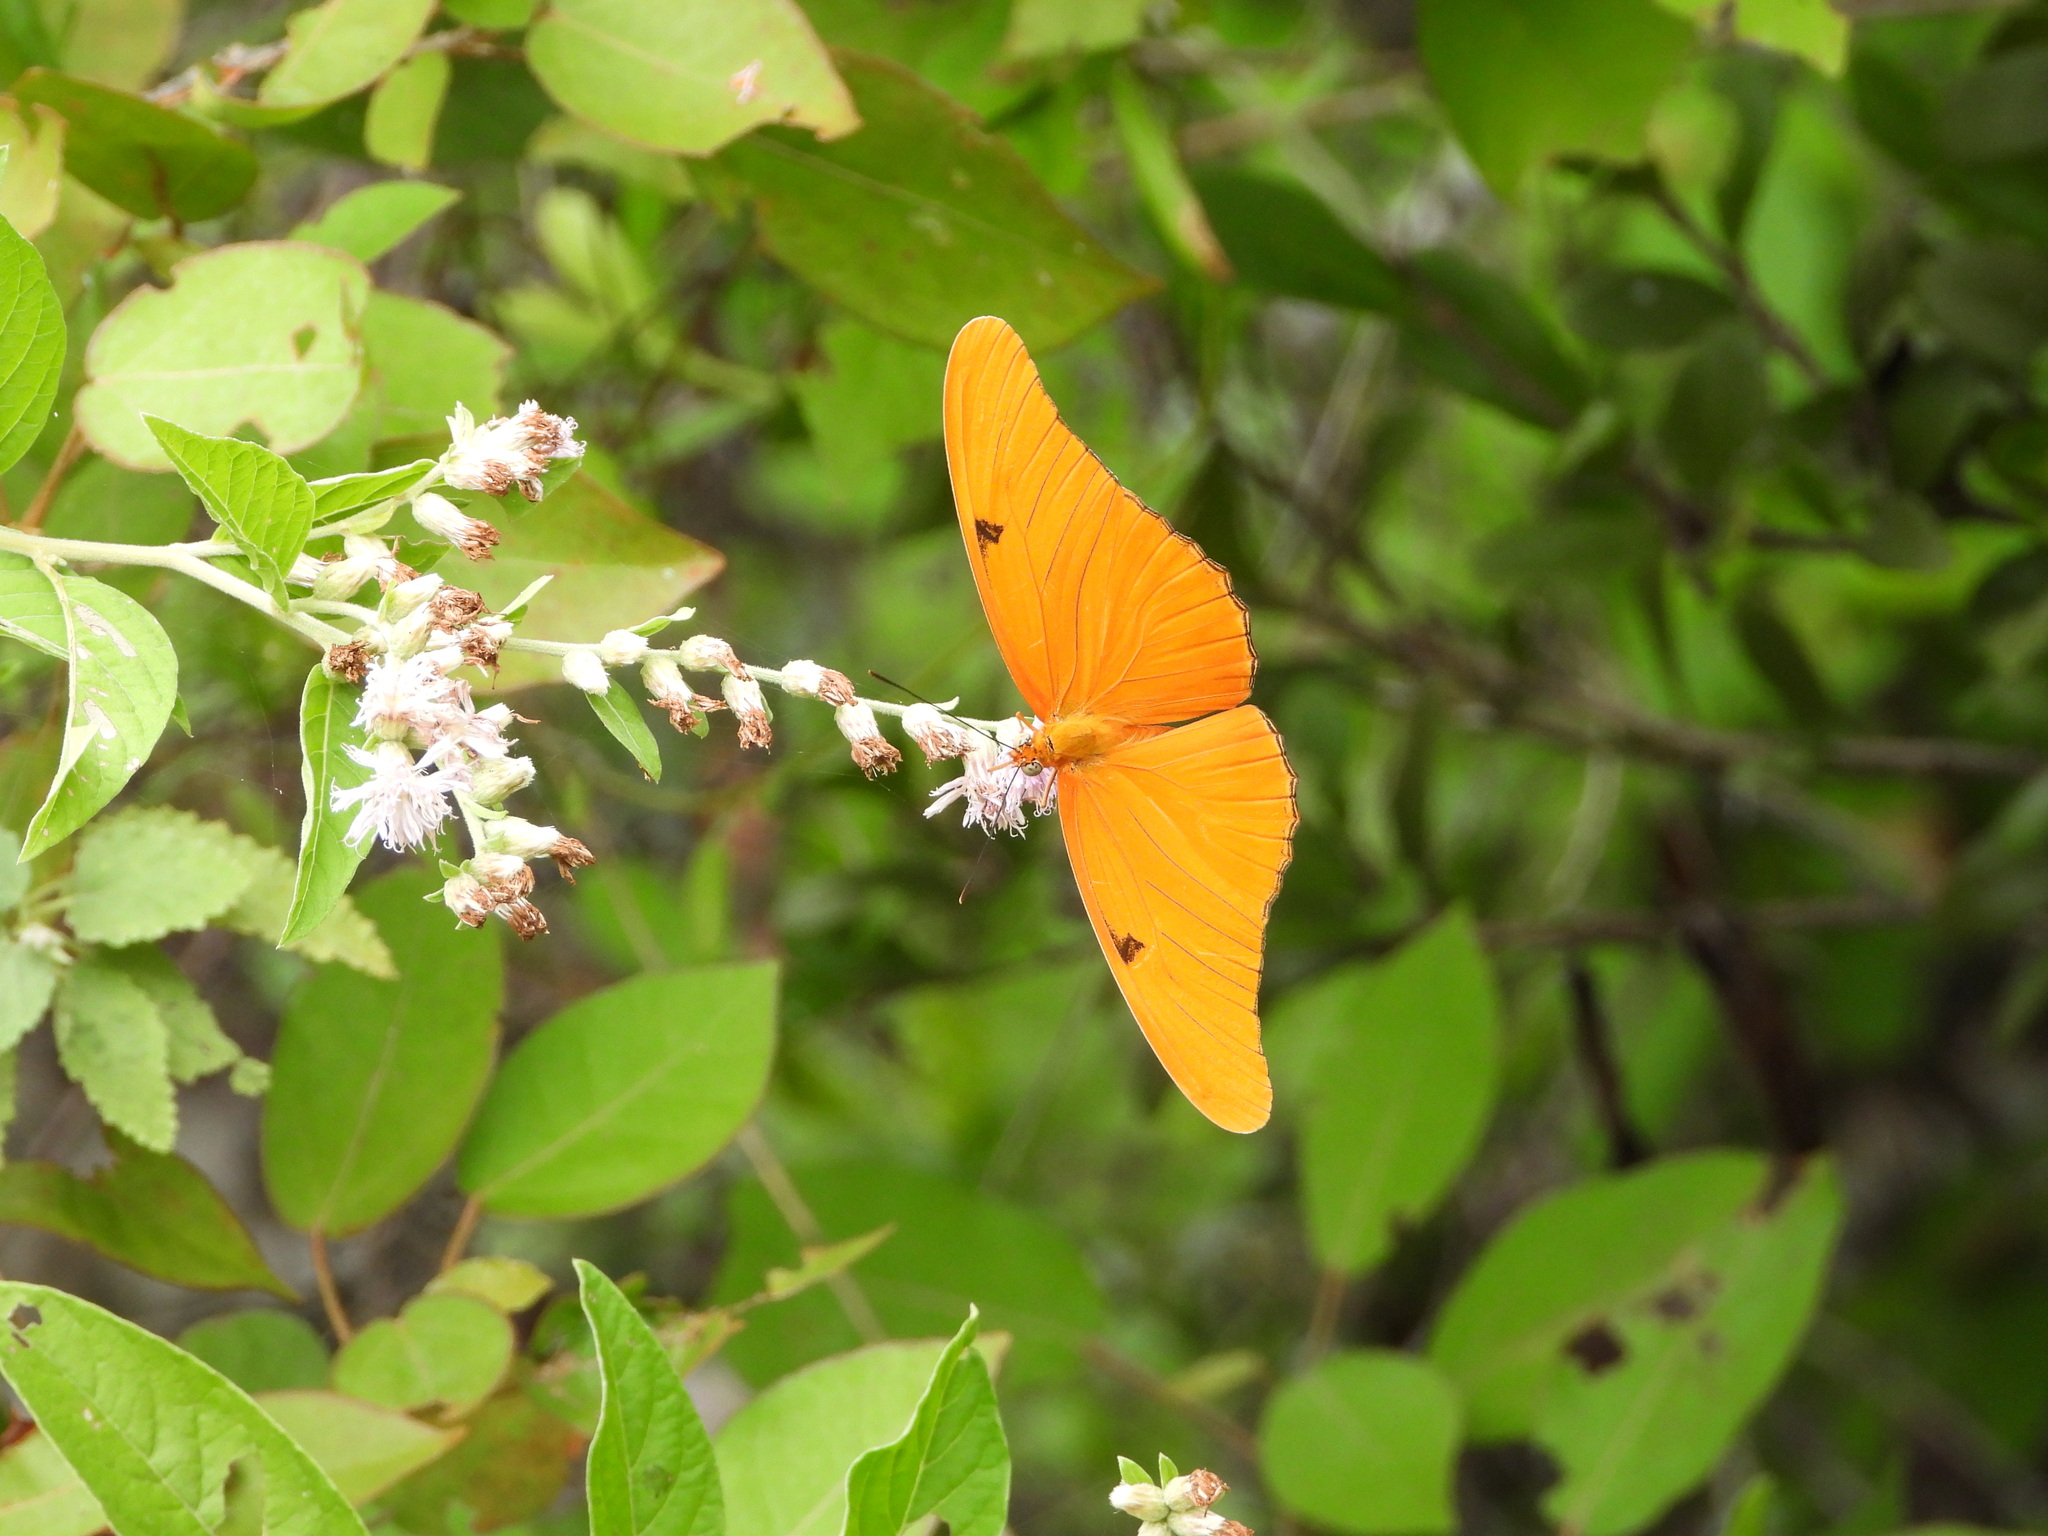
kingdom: Animalia
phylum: Arthropoda
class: Insecta
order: Lepidoptera
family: Nymphalidae
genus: Dryas
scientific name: Dryas iulia
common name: Flambeau
